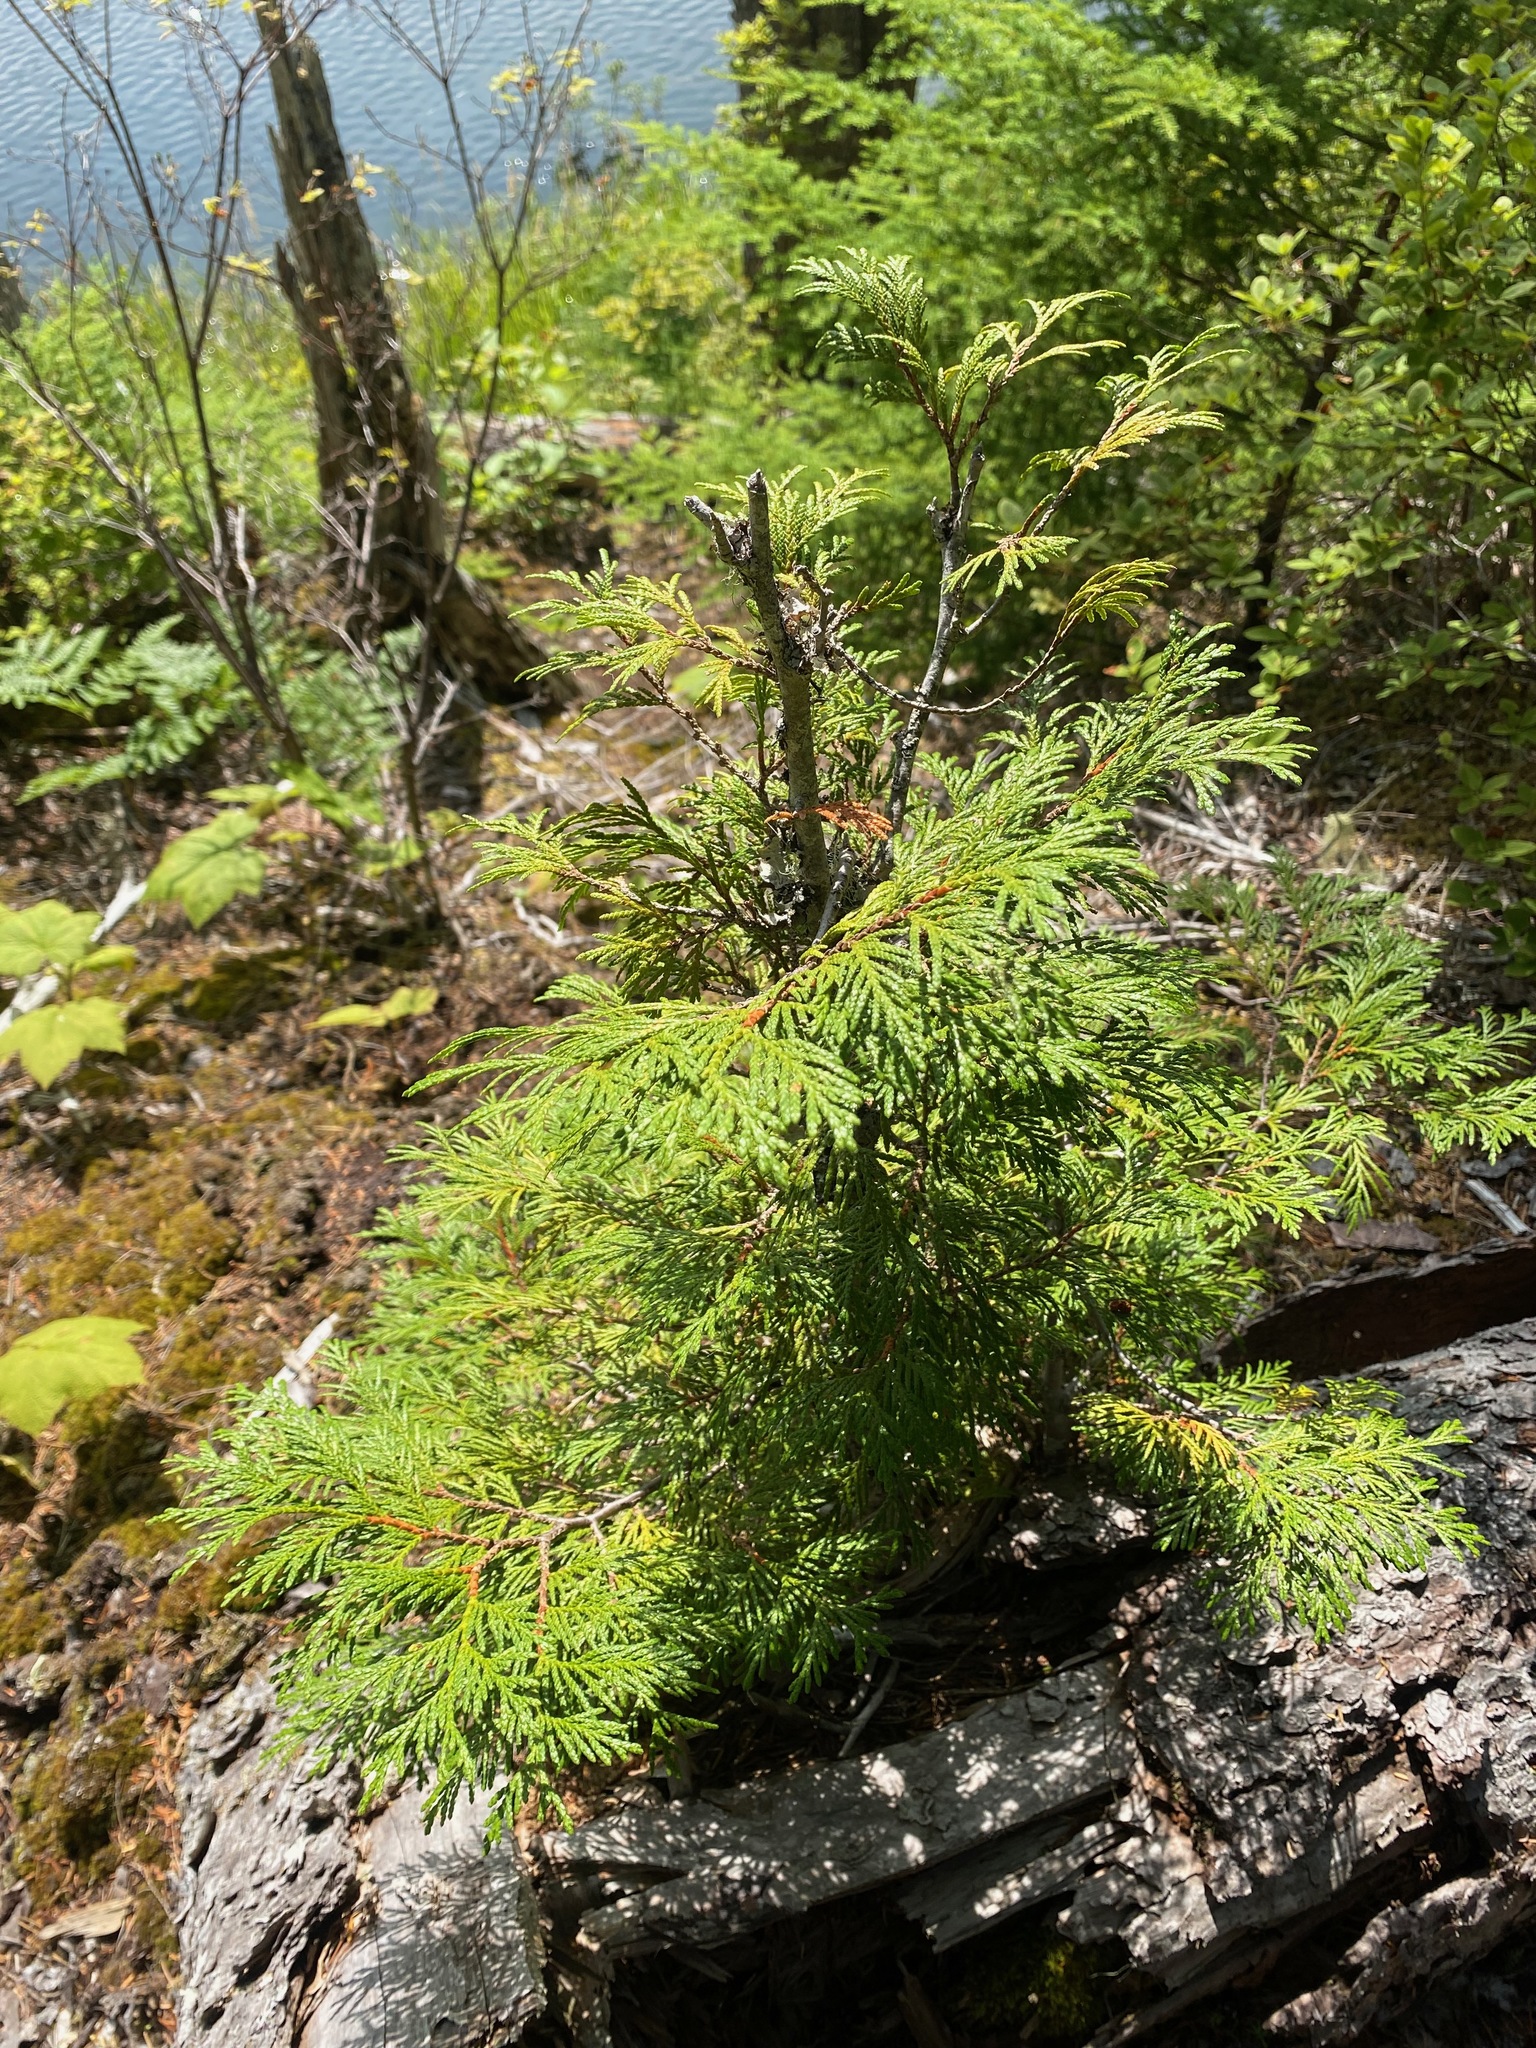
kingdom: Plantae
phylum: Tracheophyta
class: Pinopsida
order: Pinales
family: Cupressaceae
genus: Thuja
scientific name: Thuja plicata
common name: Western red-cedar
